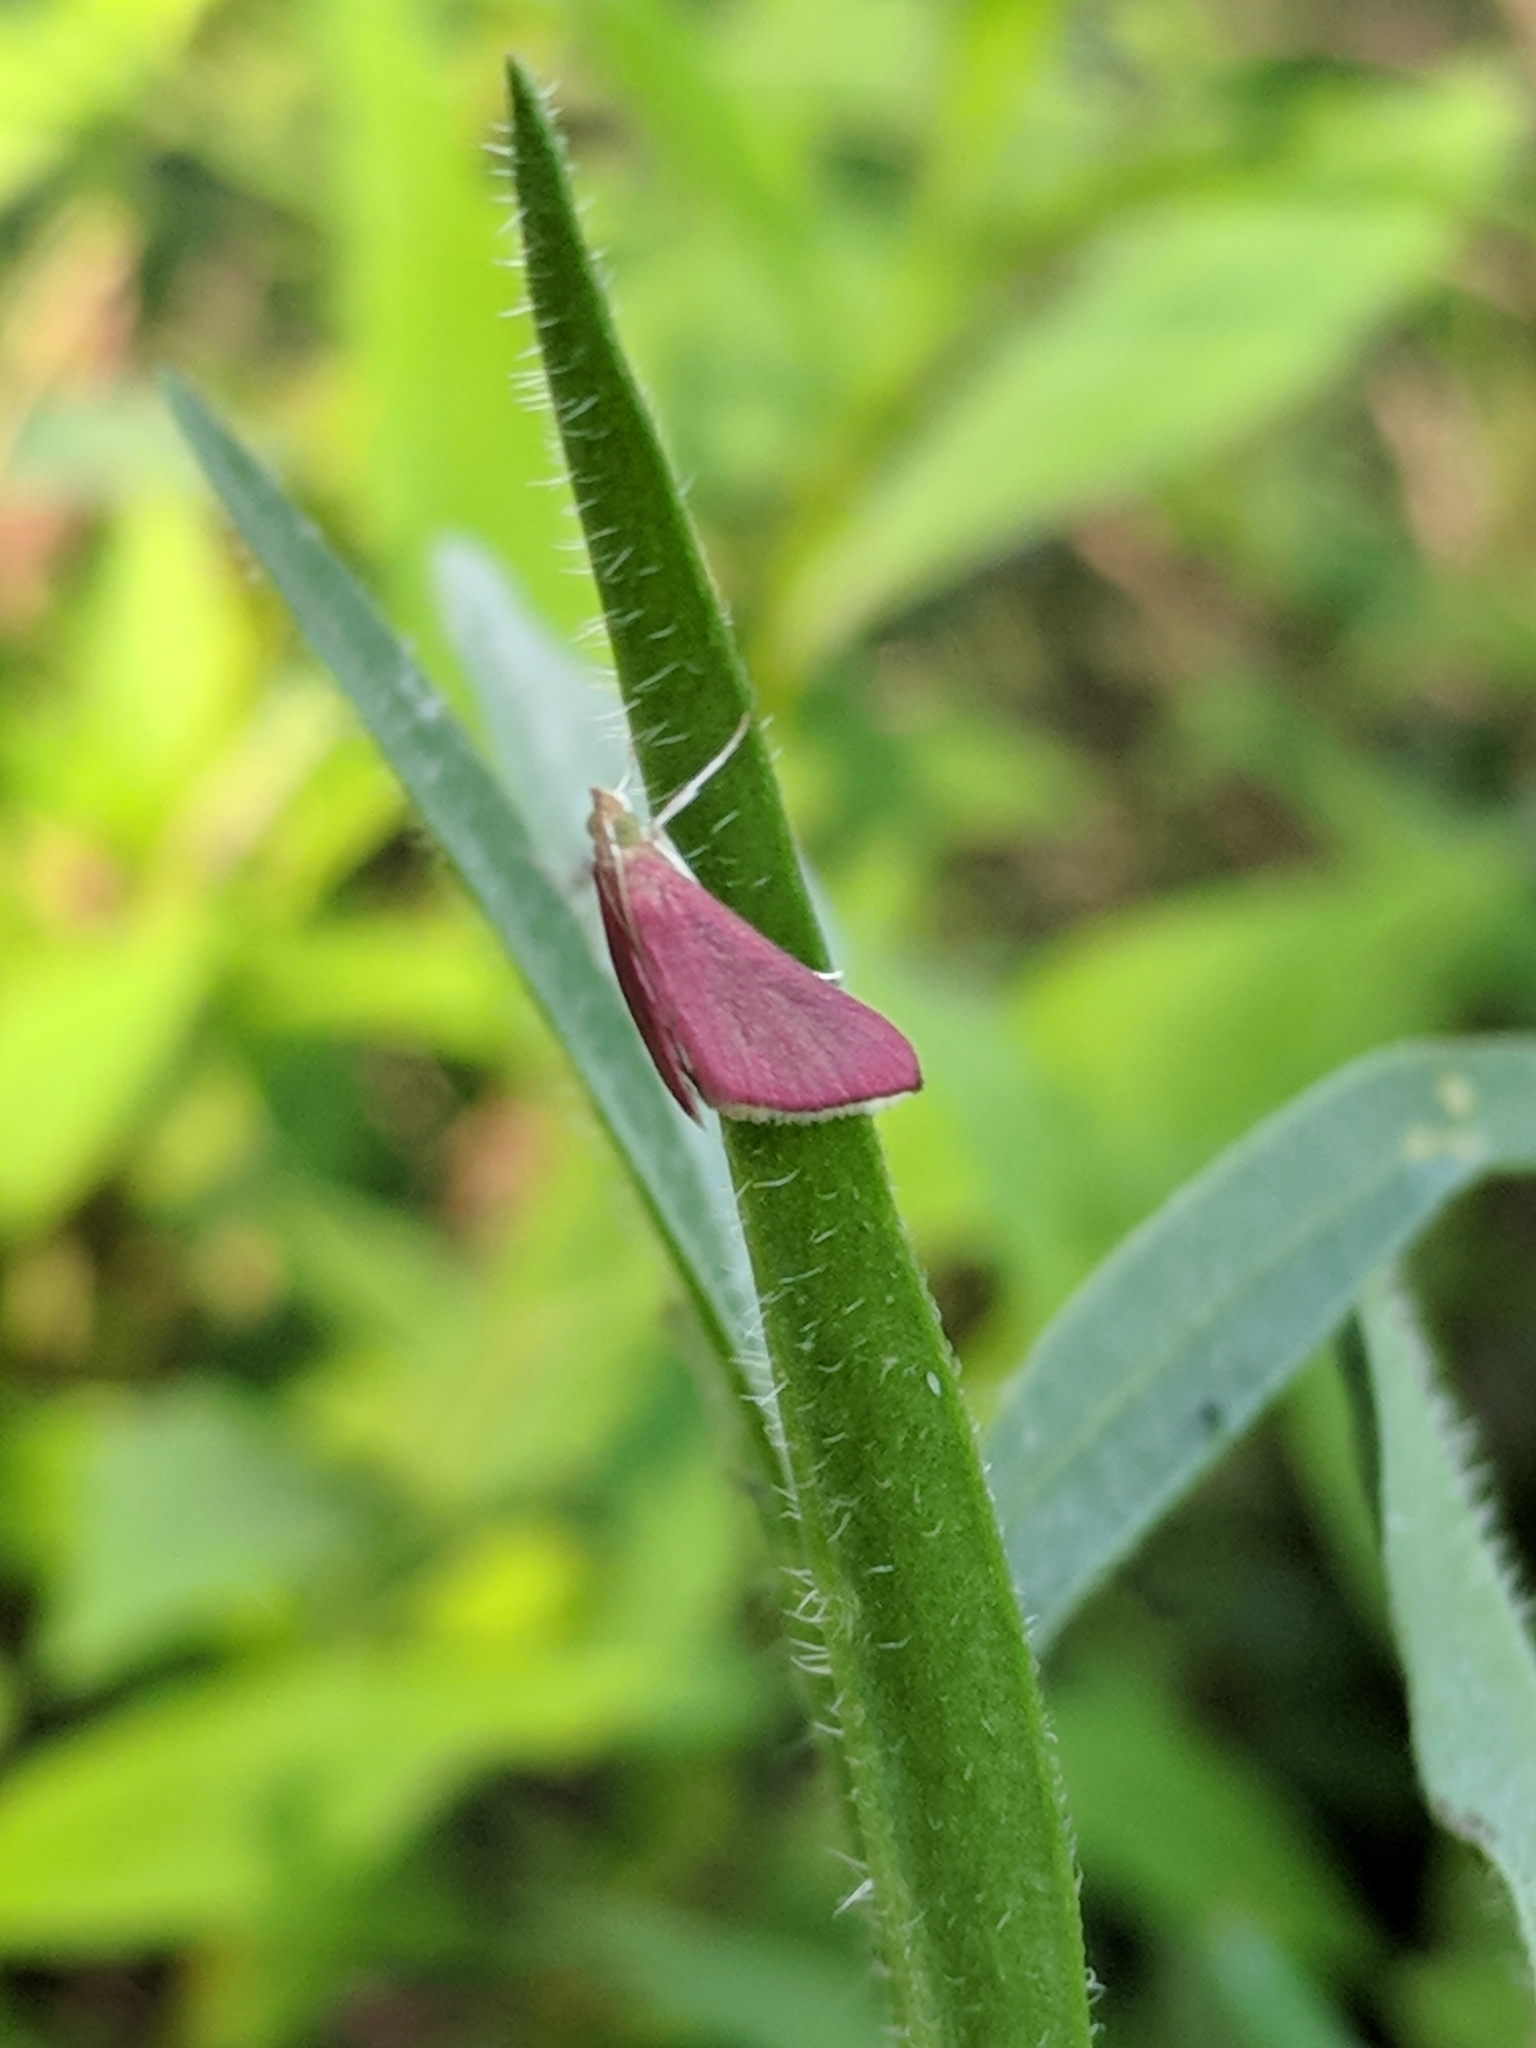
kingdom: Animalia
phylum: Arthropoda
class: Insecta
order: Lepidoptera
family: Crambidae
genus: Pyrausta
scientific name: Pyrausta inornatalis
